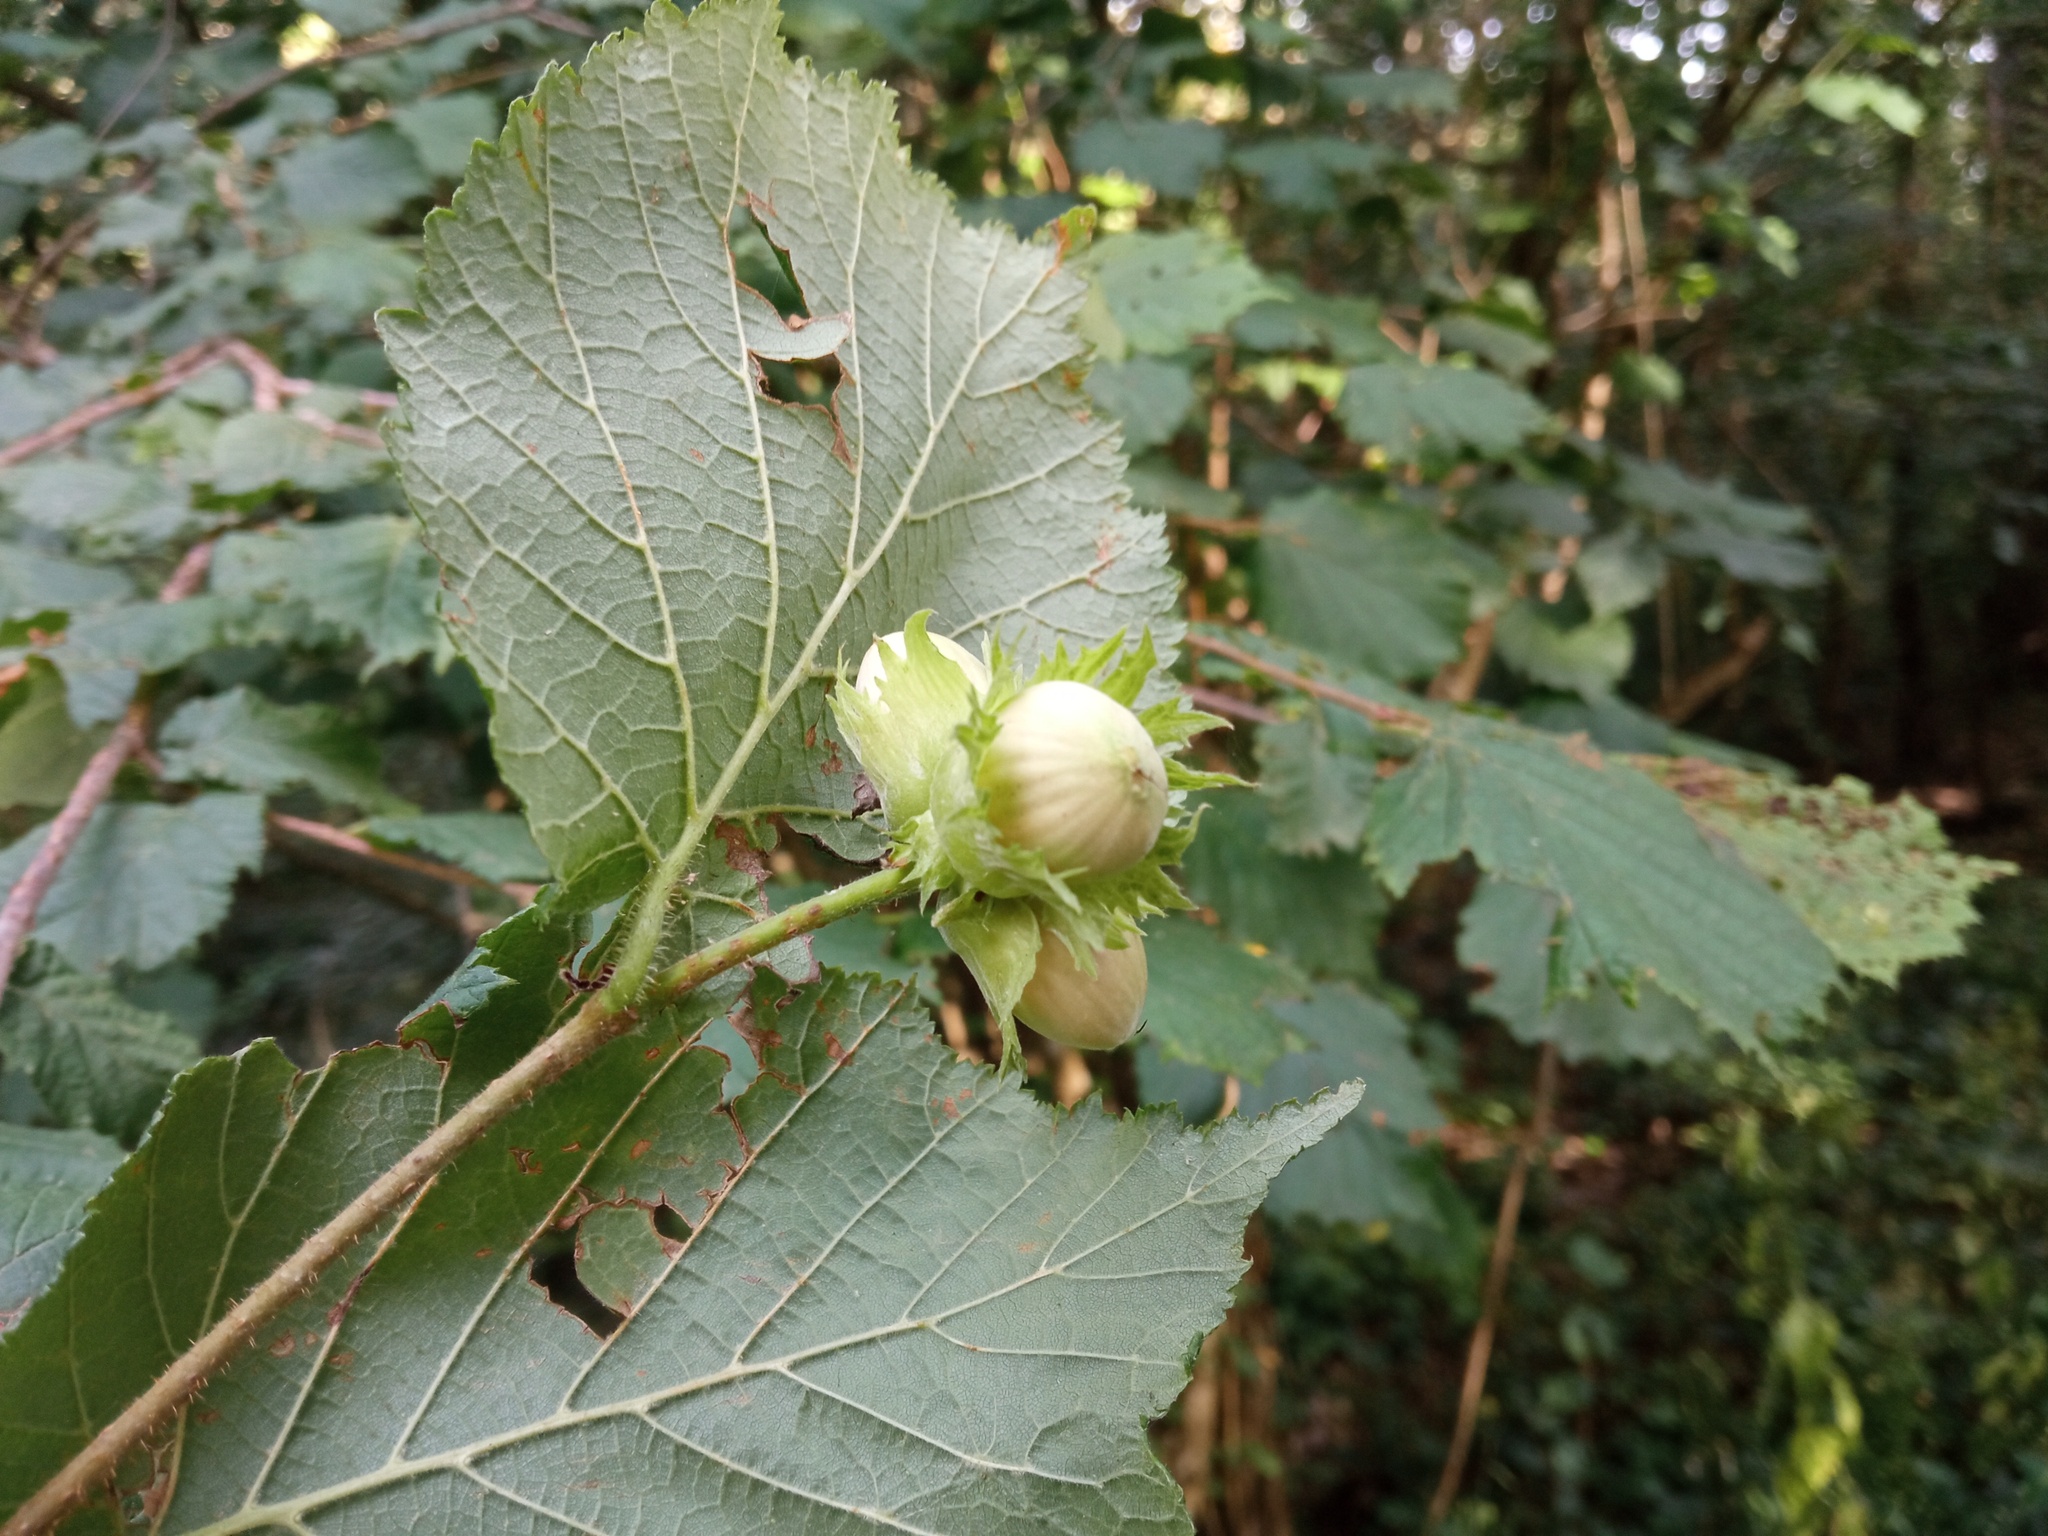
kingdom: Plantae
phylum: Tracheophyta
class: Magnoliopsida
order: Fagales
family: Betulaceae
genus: Corylus
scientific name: Corylus avellana
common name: European hazel
